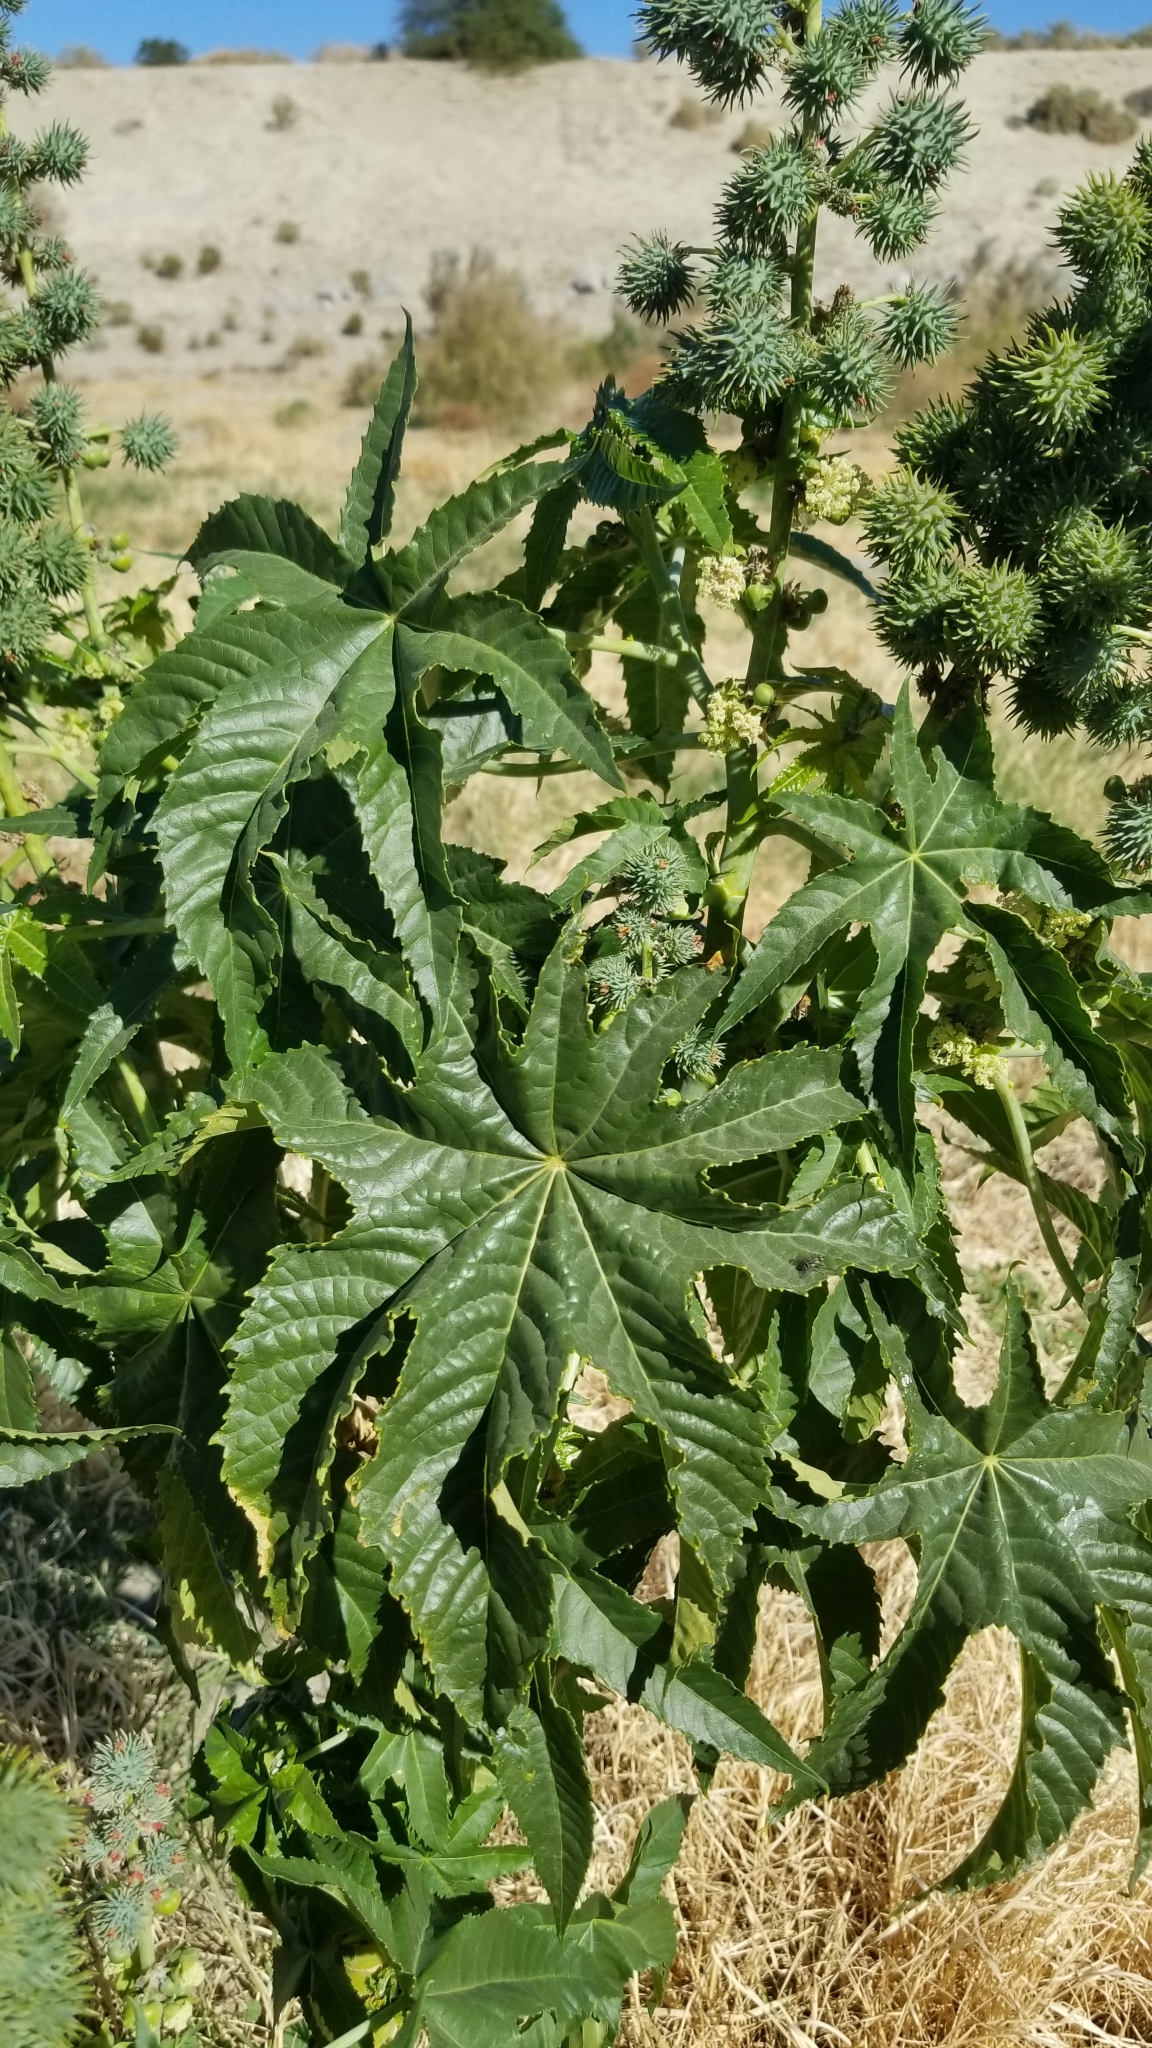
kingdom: Plantae
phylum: Tracheophyta
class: Magnoliopsida
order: Malpighiales
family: Euphorbiaceae
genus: Ricinus
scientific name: Ricinus communis
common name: Castor-oil-plant
